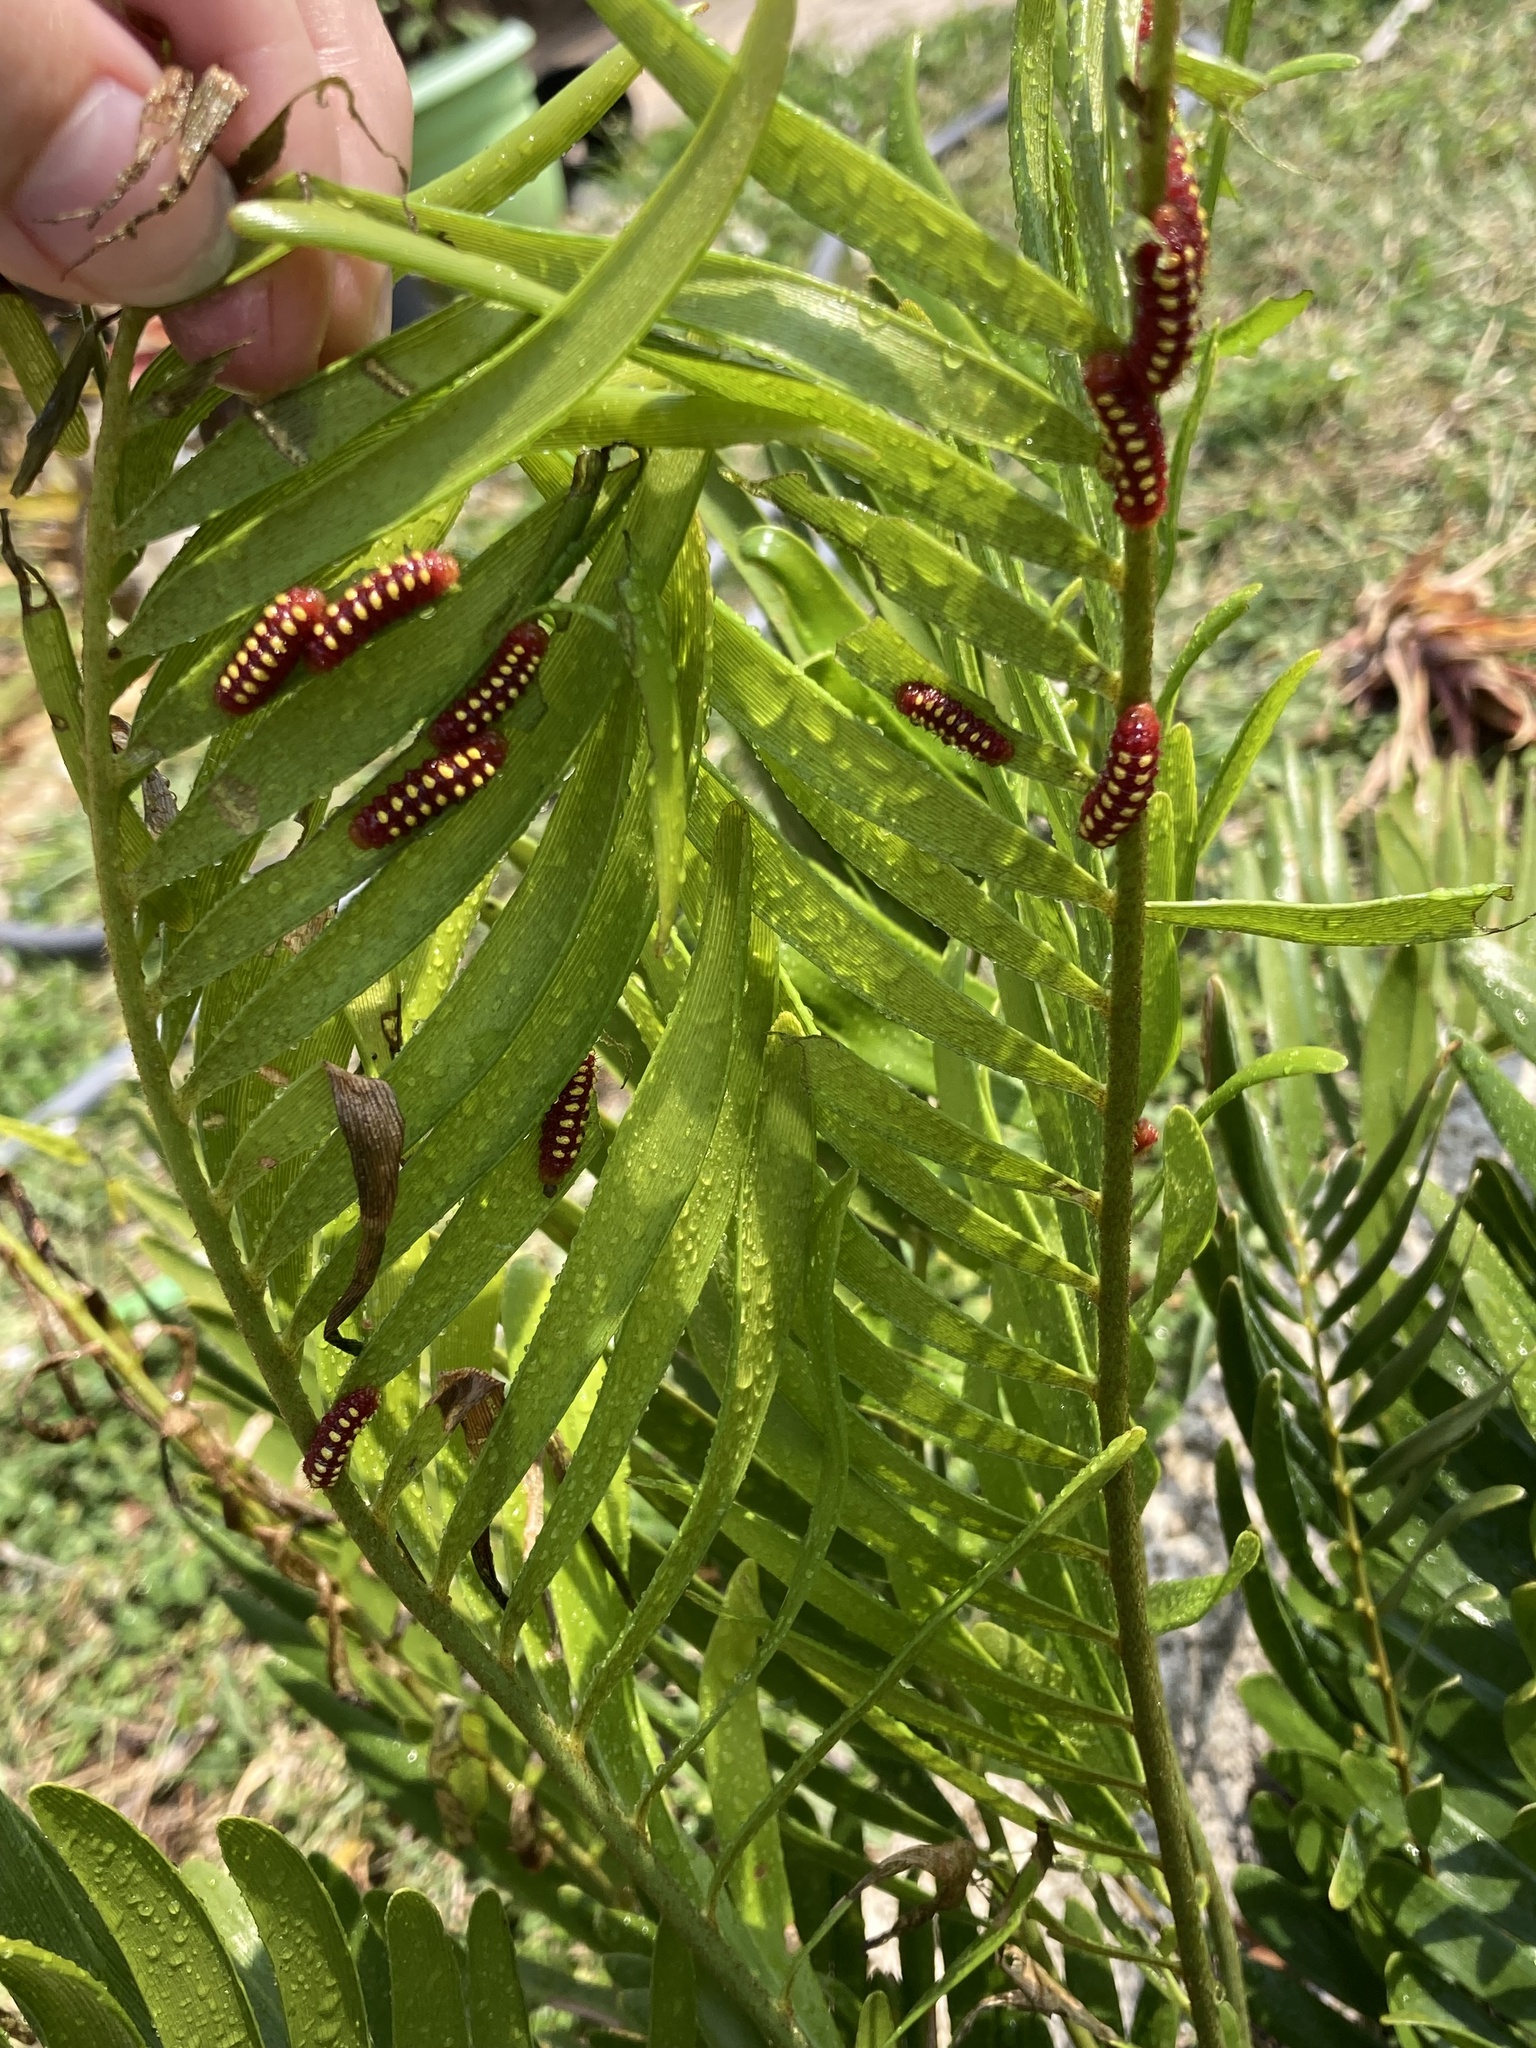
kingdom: Animalia
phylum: Arthropoda
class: Insecta
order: Lepidoptera
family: Lycaenidae
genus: Eumaeus
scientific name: Eumaeus atala
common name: Atala
